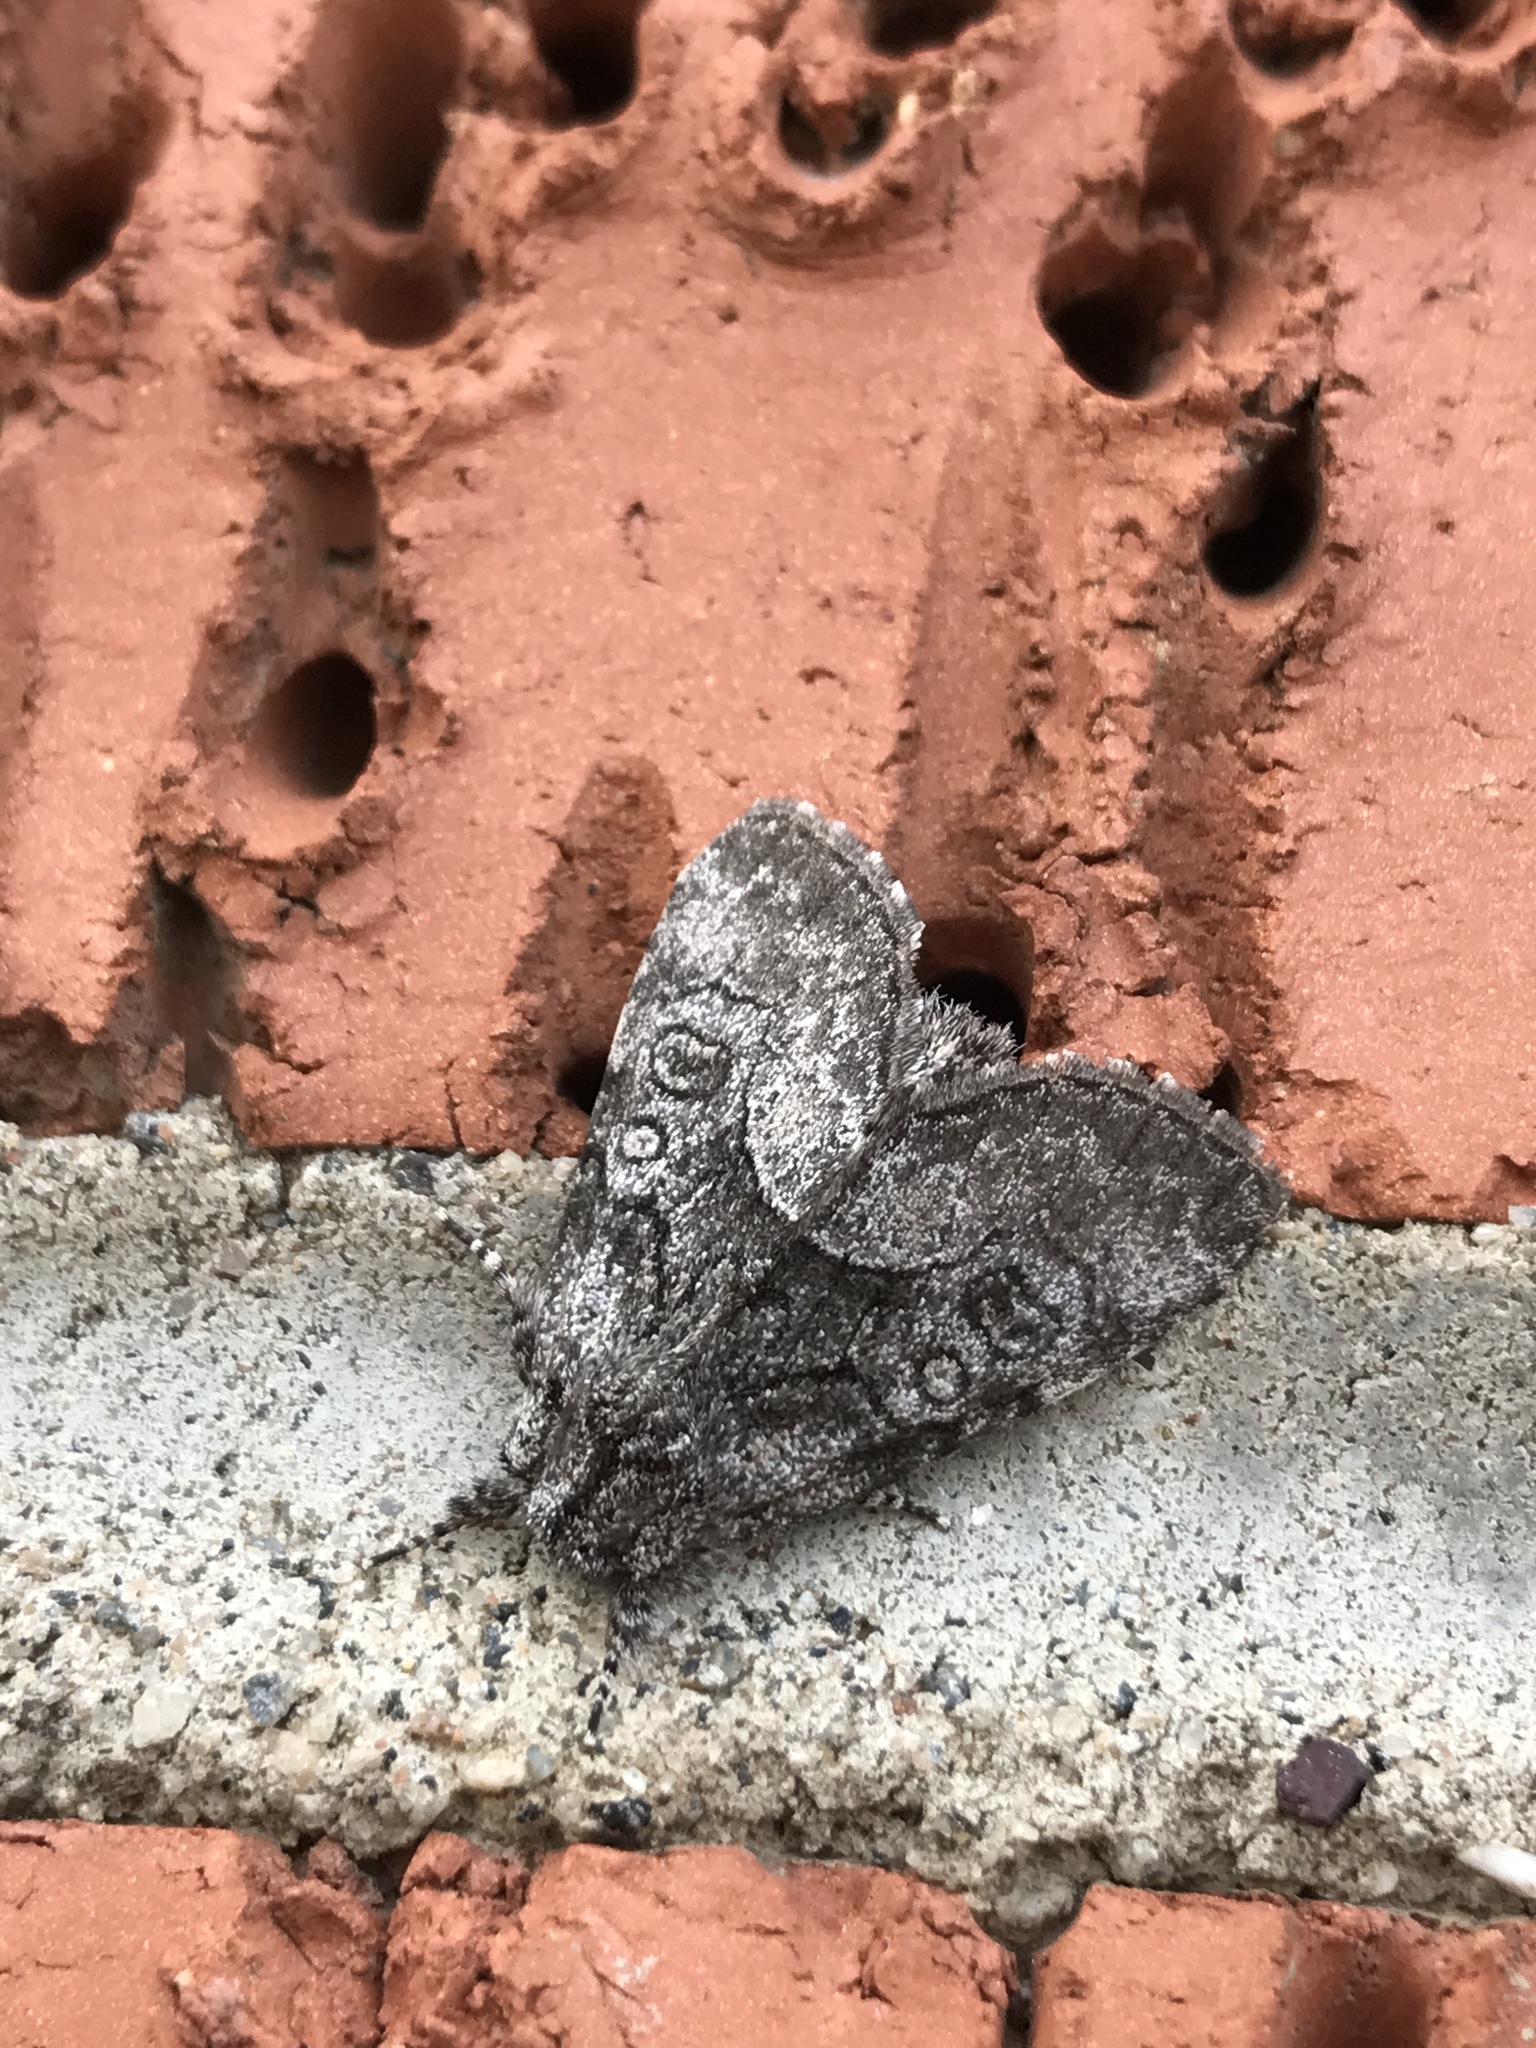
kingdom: Animalia
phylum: Arthropoda
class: Insecta
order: Lepidoptera
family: Noctuidae
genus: Raphia
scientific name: Raphia frater
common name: Brother
